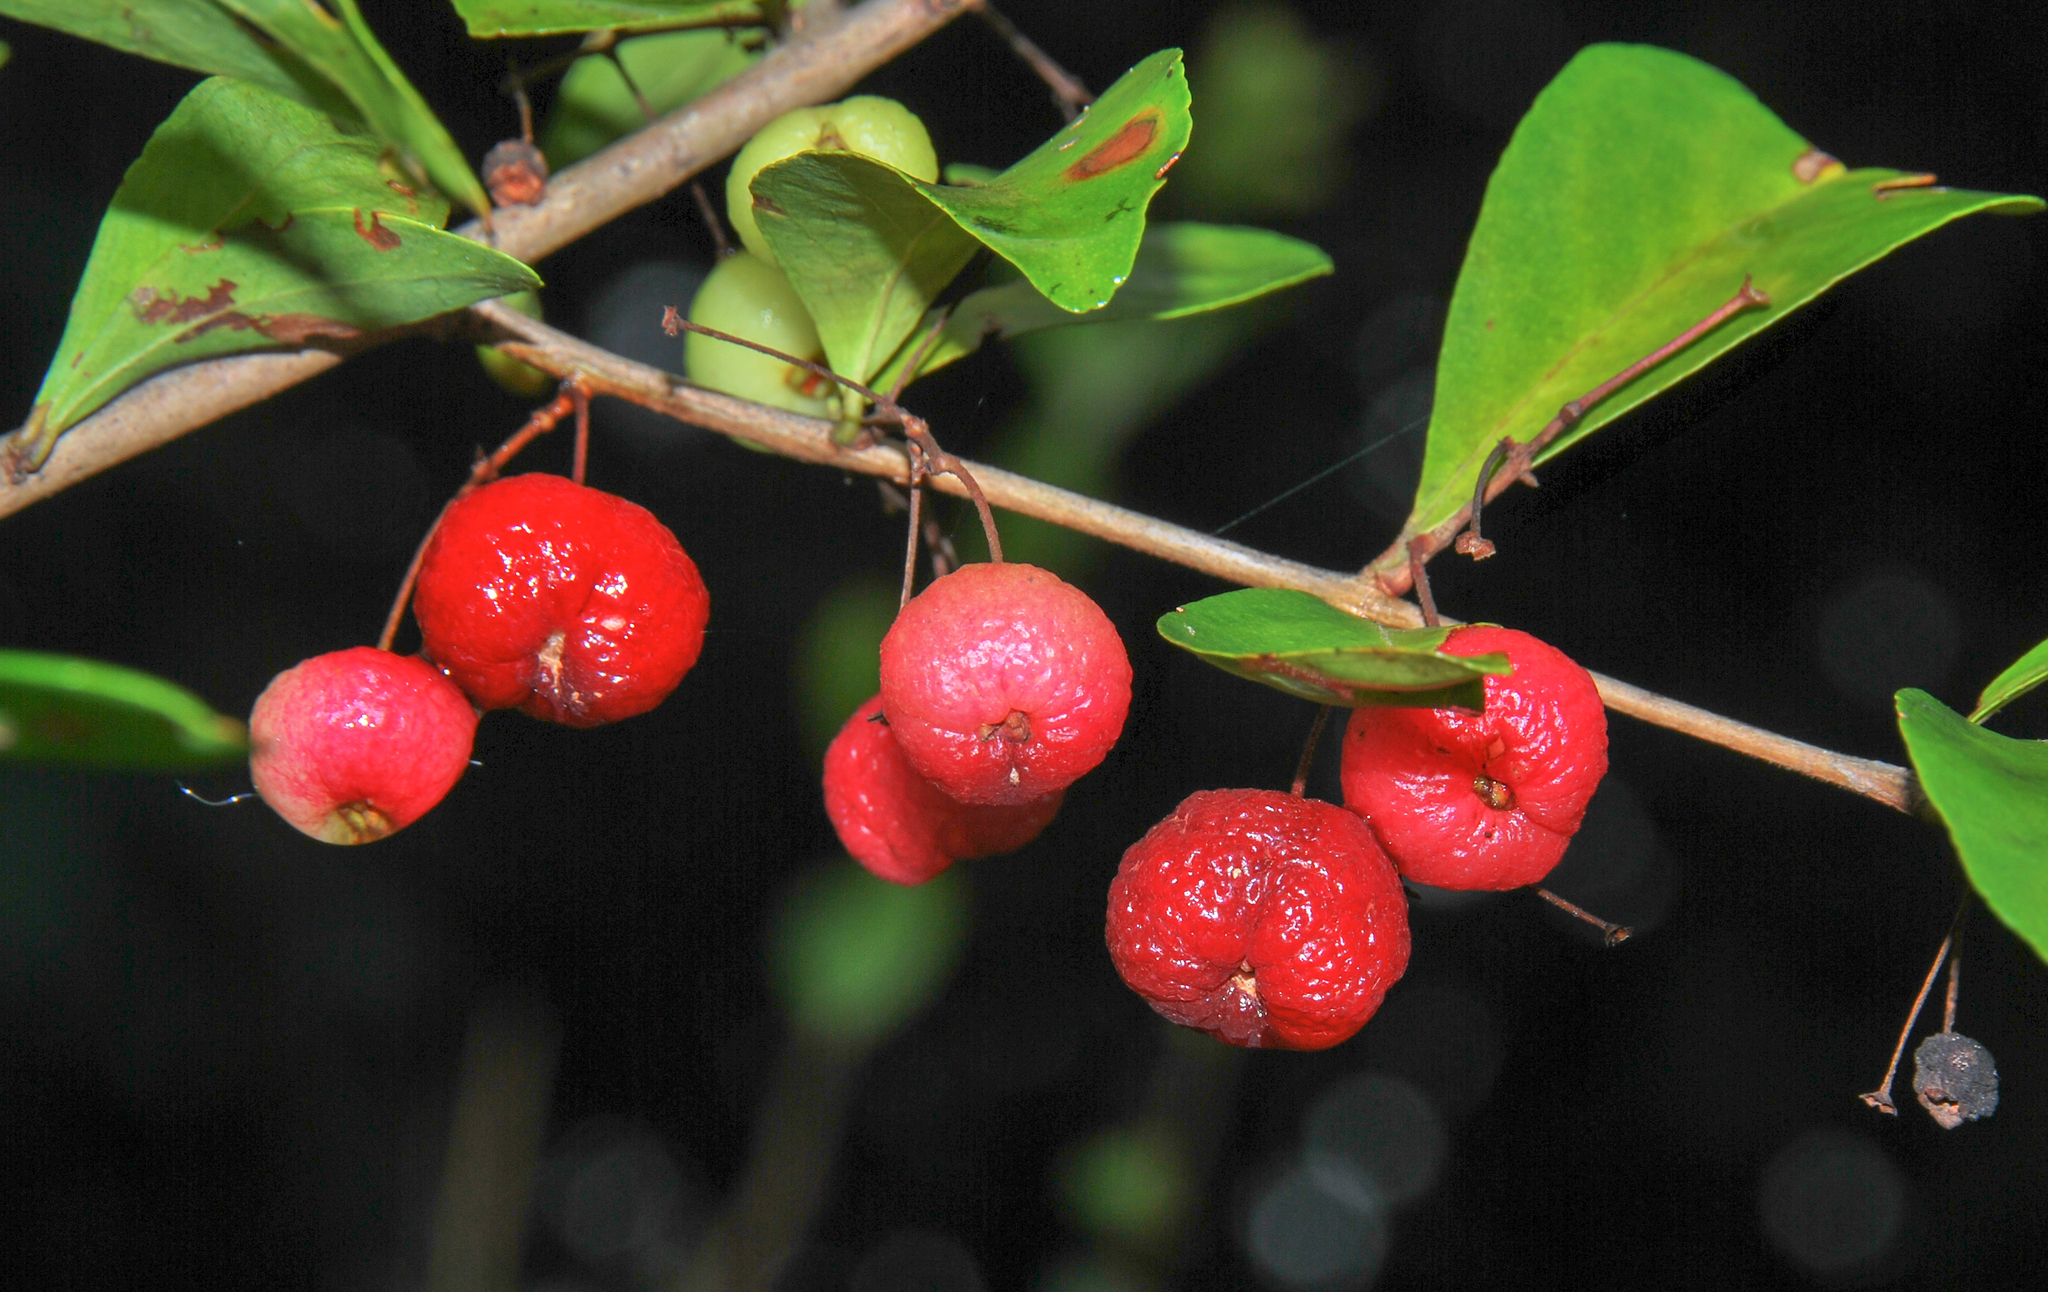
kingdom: Plantae
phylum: Tracheophyta
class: Magnoliopsida
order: Myrtales
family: Myrtaceae
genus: Eugenia
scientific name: Eugenia inundata
